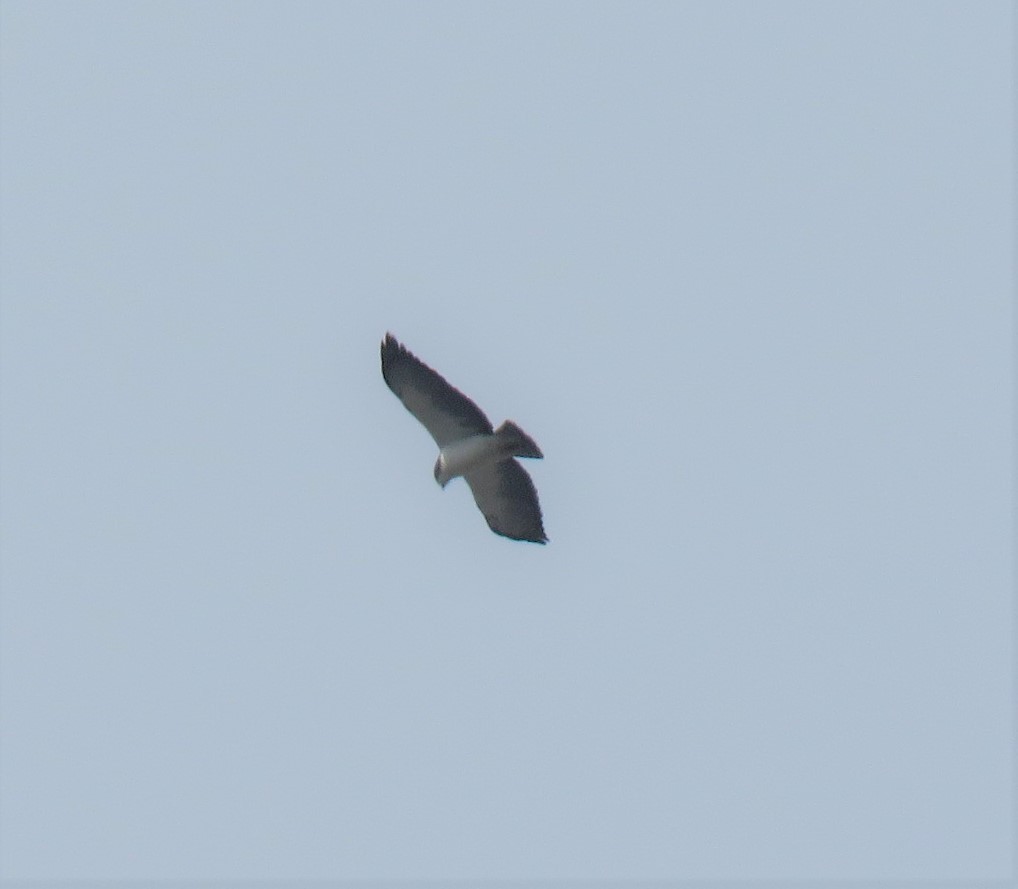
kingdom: Animalia
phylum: Chordata
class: Aves
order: Accipitriformes
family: Accipitridae
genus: Buteo
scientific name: Buteo brachyurus
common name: Short-tailed hawk
